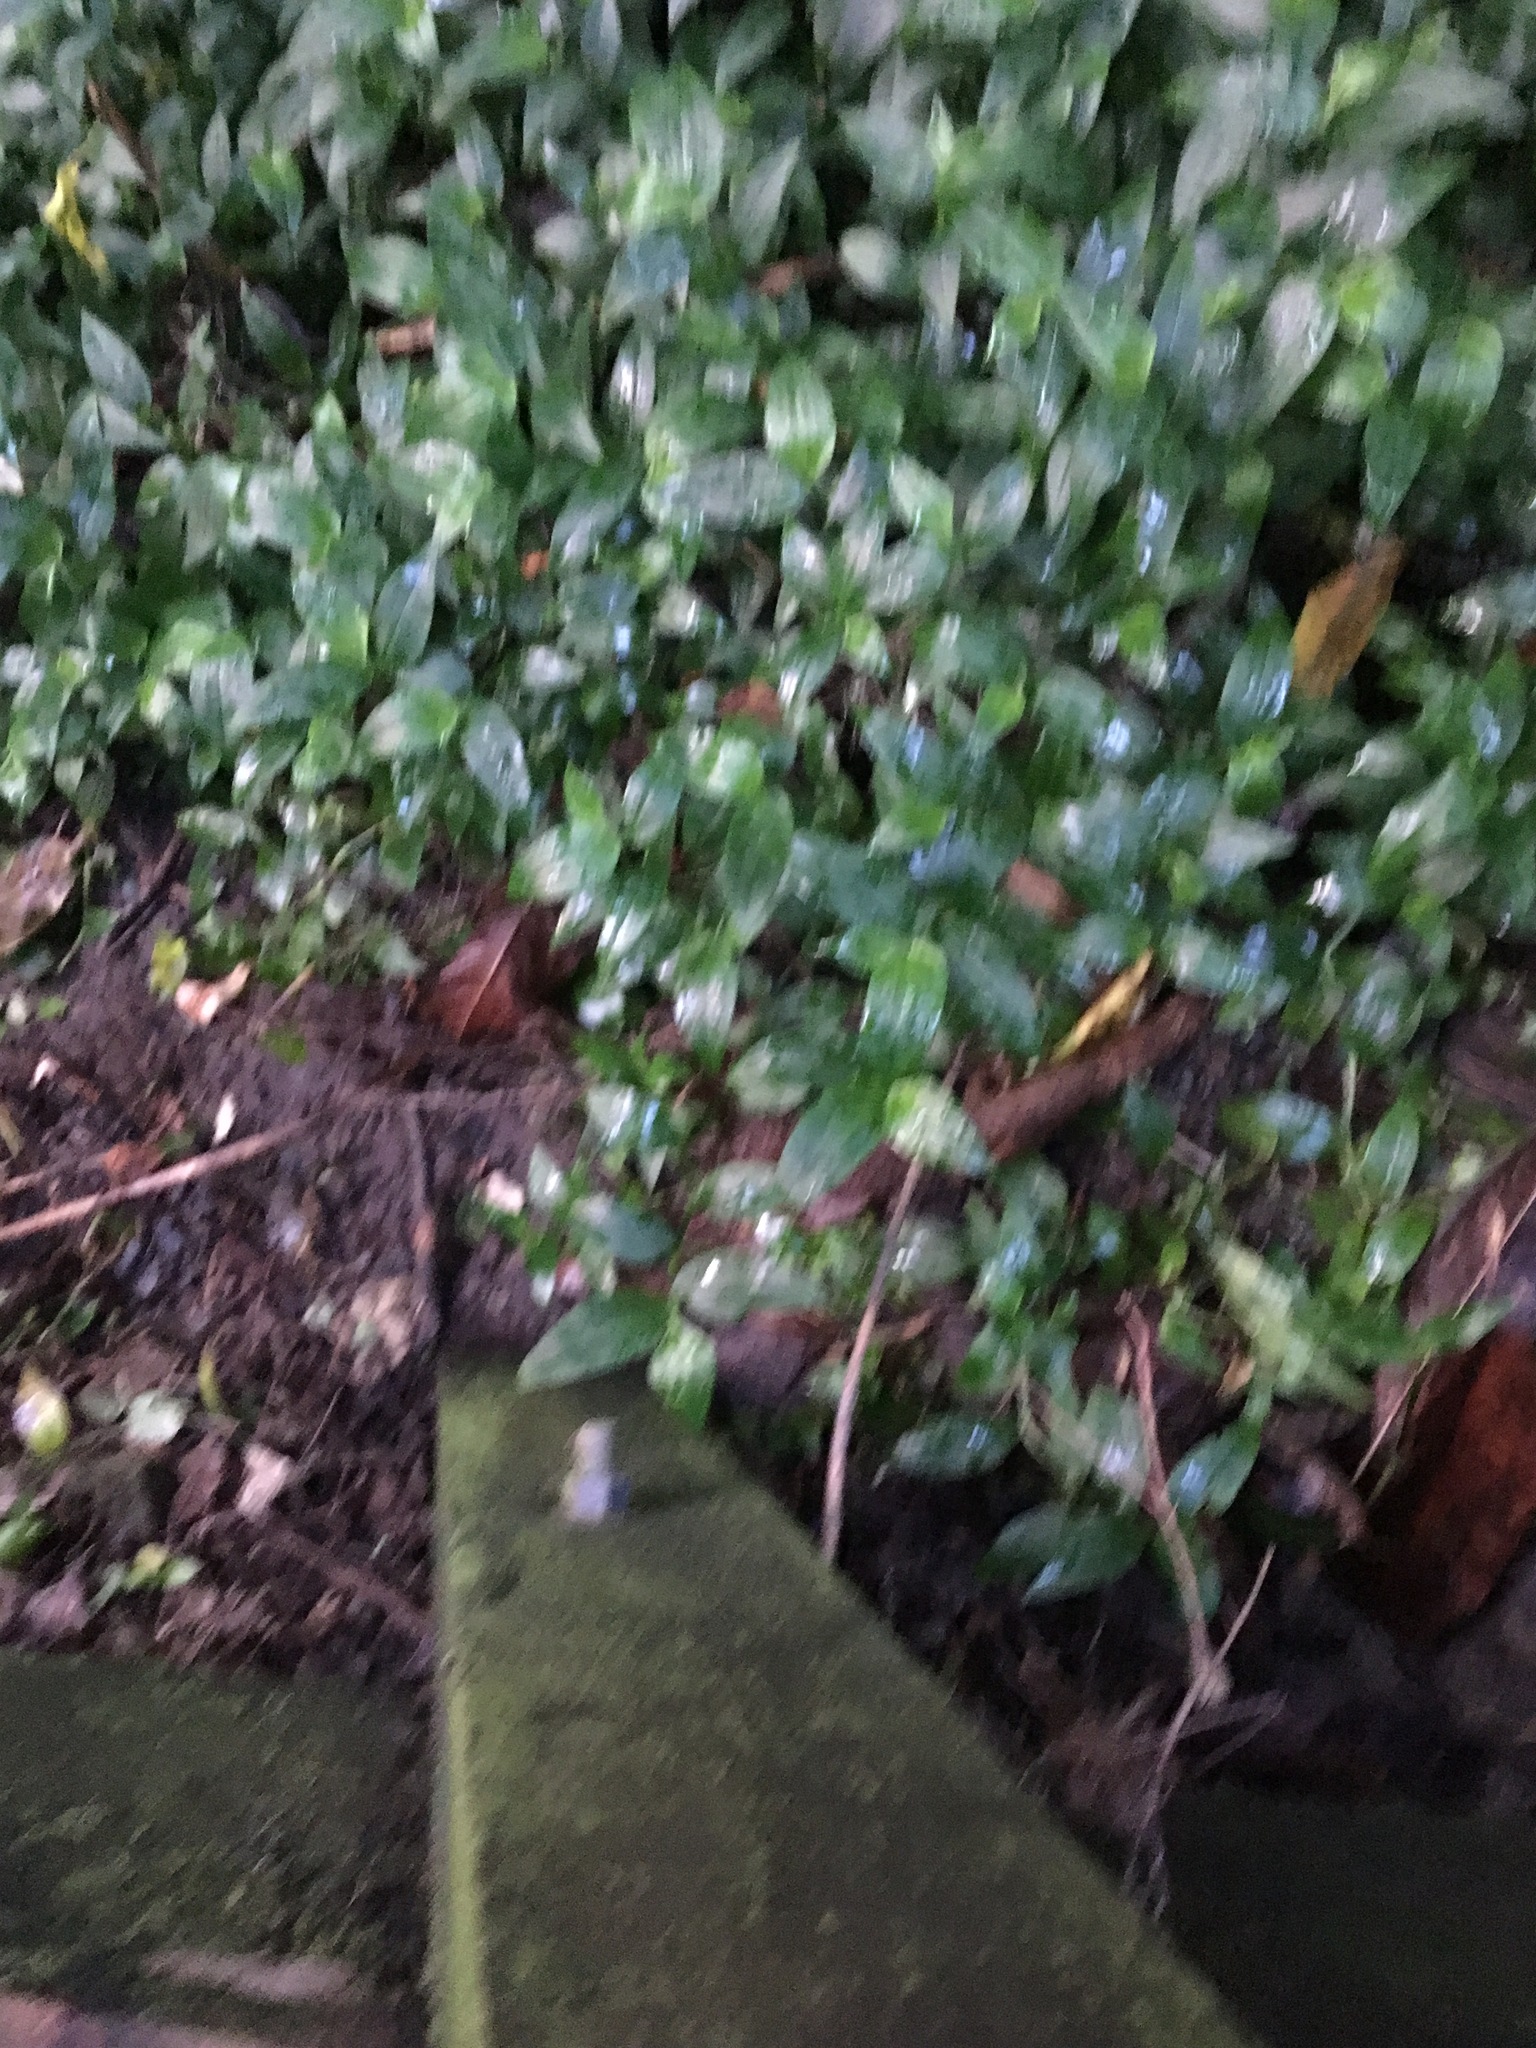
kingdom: Plantae
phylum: Tracheophyta
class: Liliopsida
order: Commelinales
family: Commelinaceae
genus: Tradescantia
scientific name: Tradescantia fluminensis
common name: Wandering-jew
